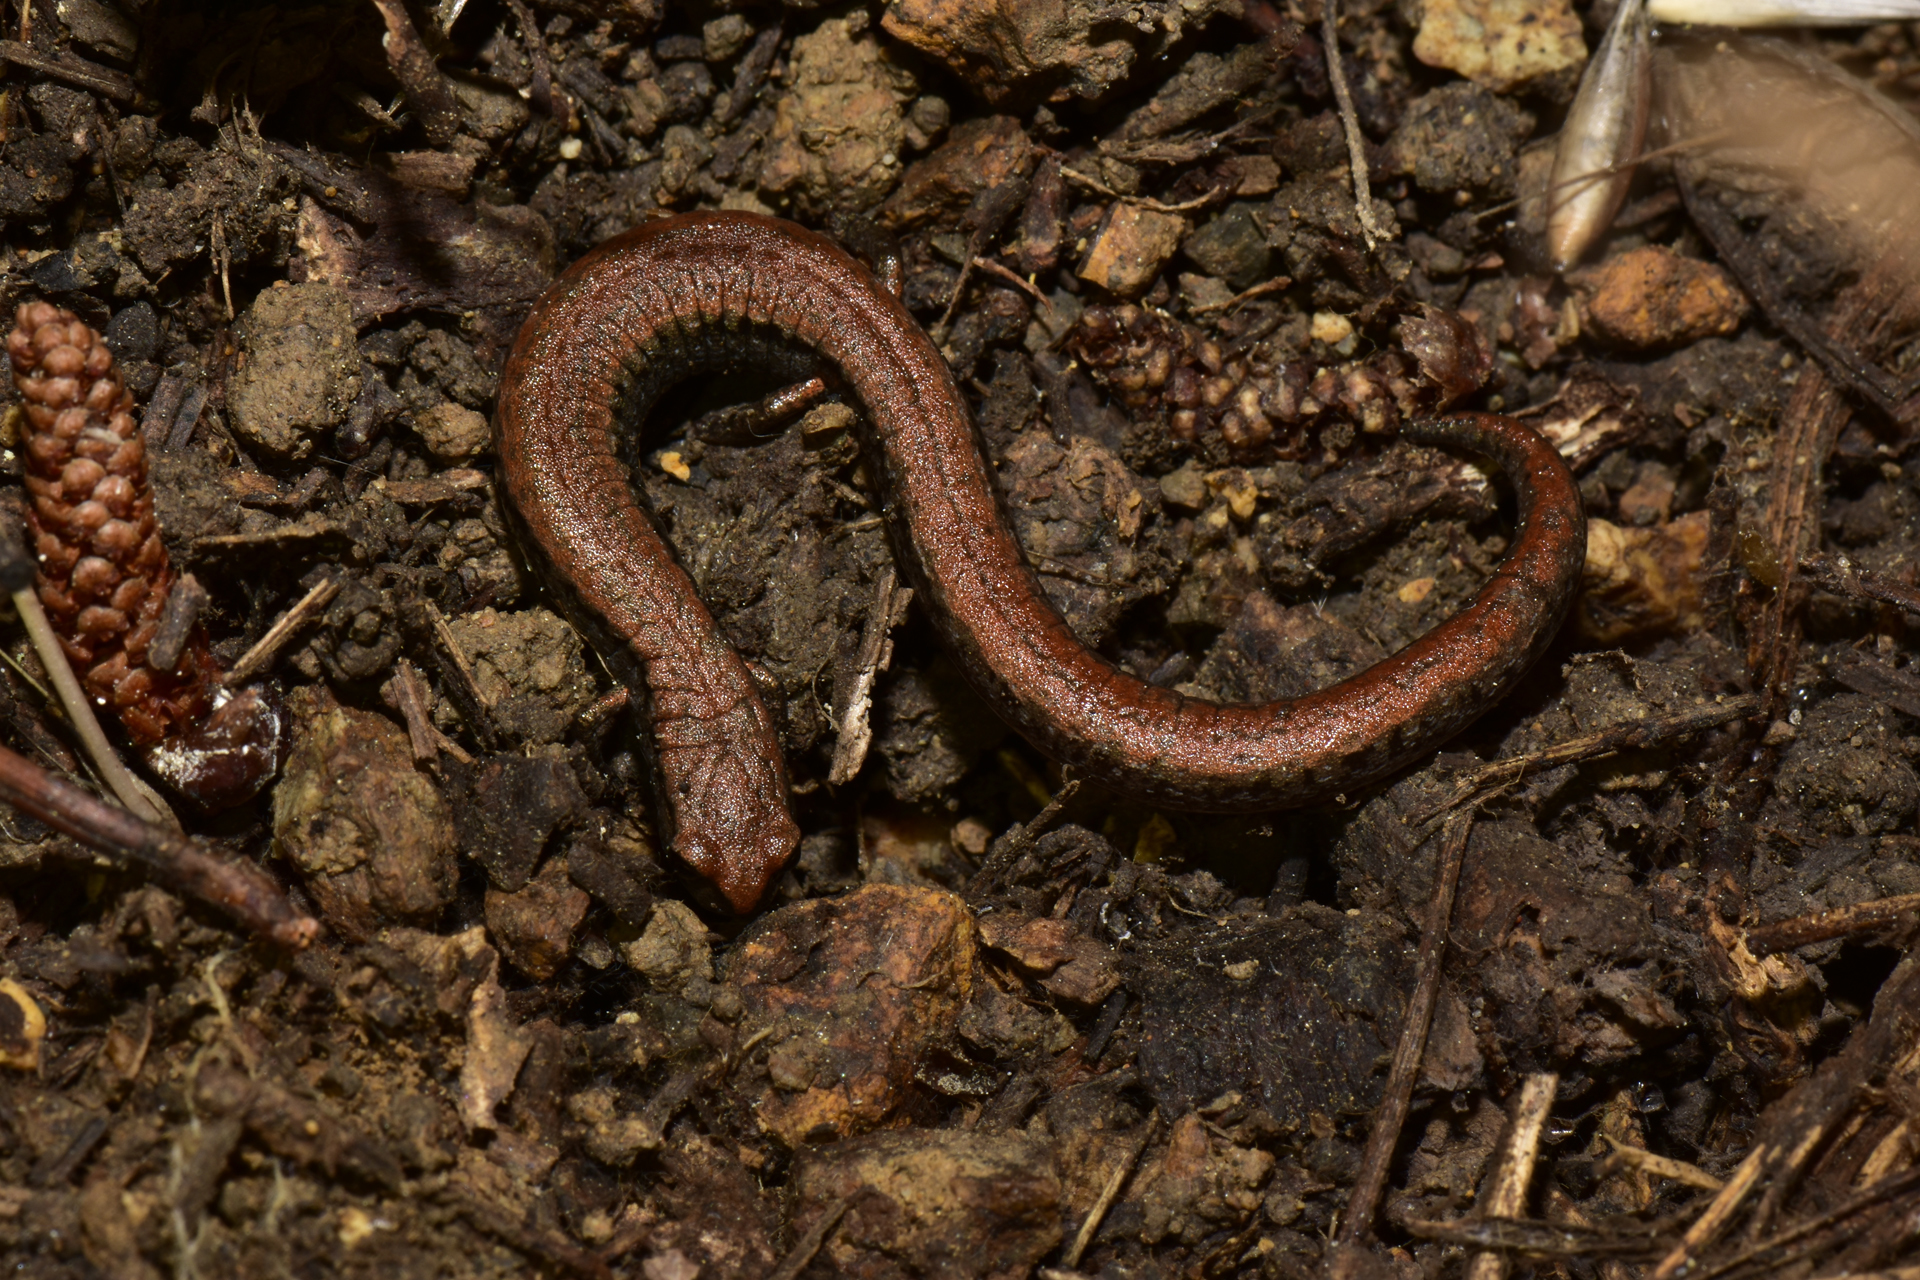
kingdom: Animalia
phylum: Chordata
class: Amphibia
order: Caudata
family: Plethodontidae
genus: Batrachoseps
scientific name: Batrachoseps attenuatus
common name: California slender salamander
